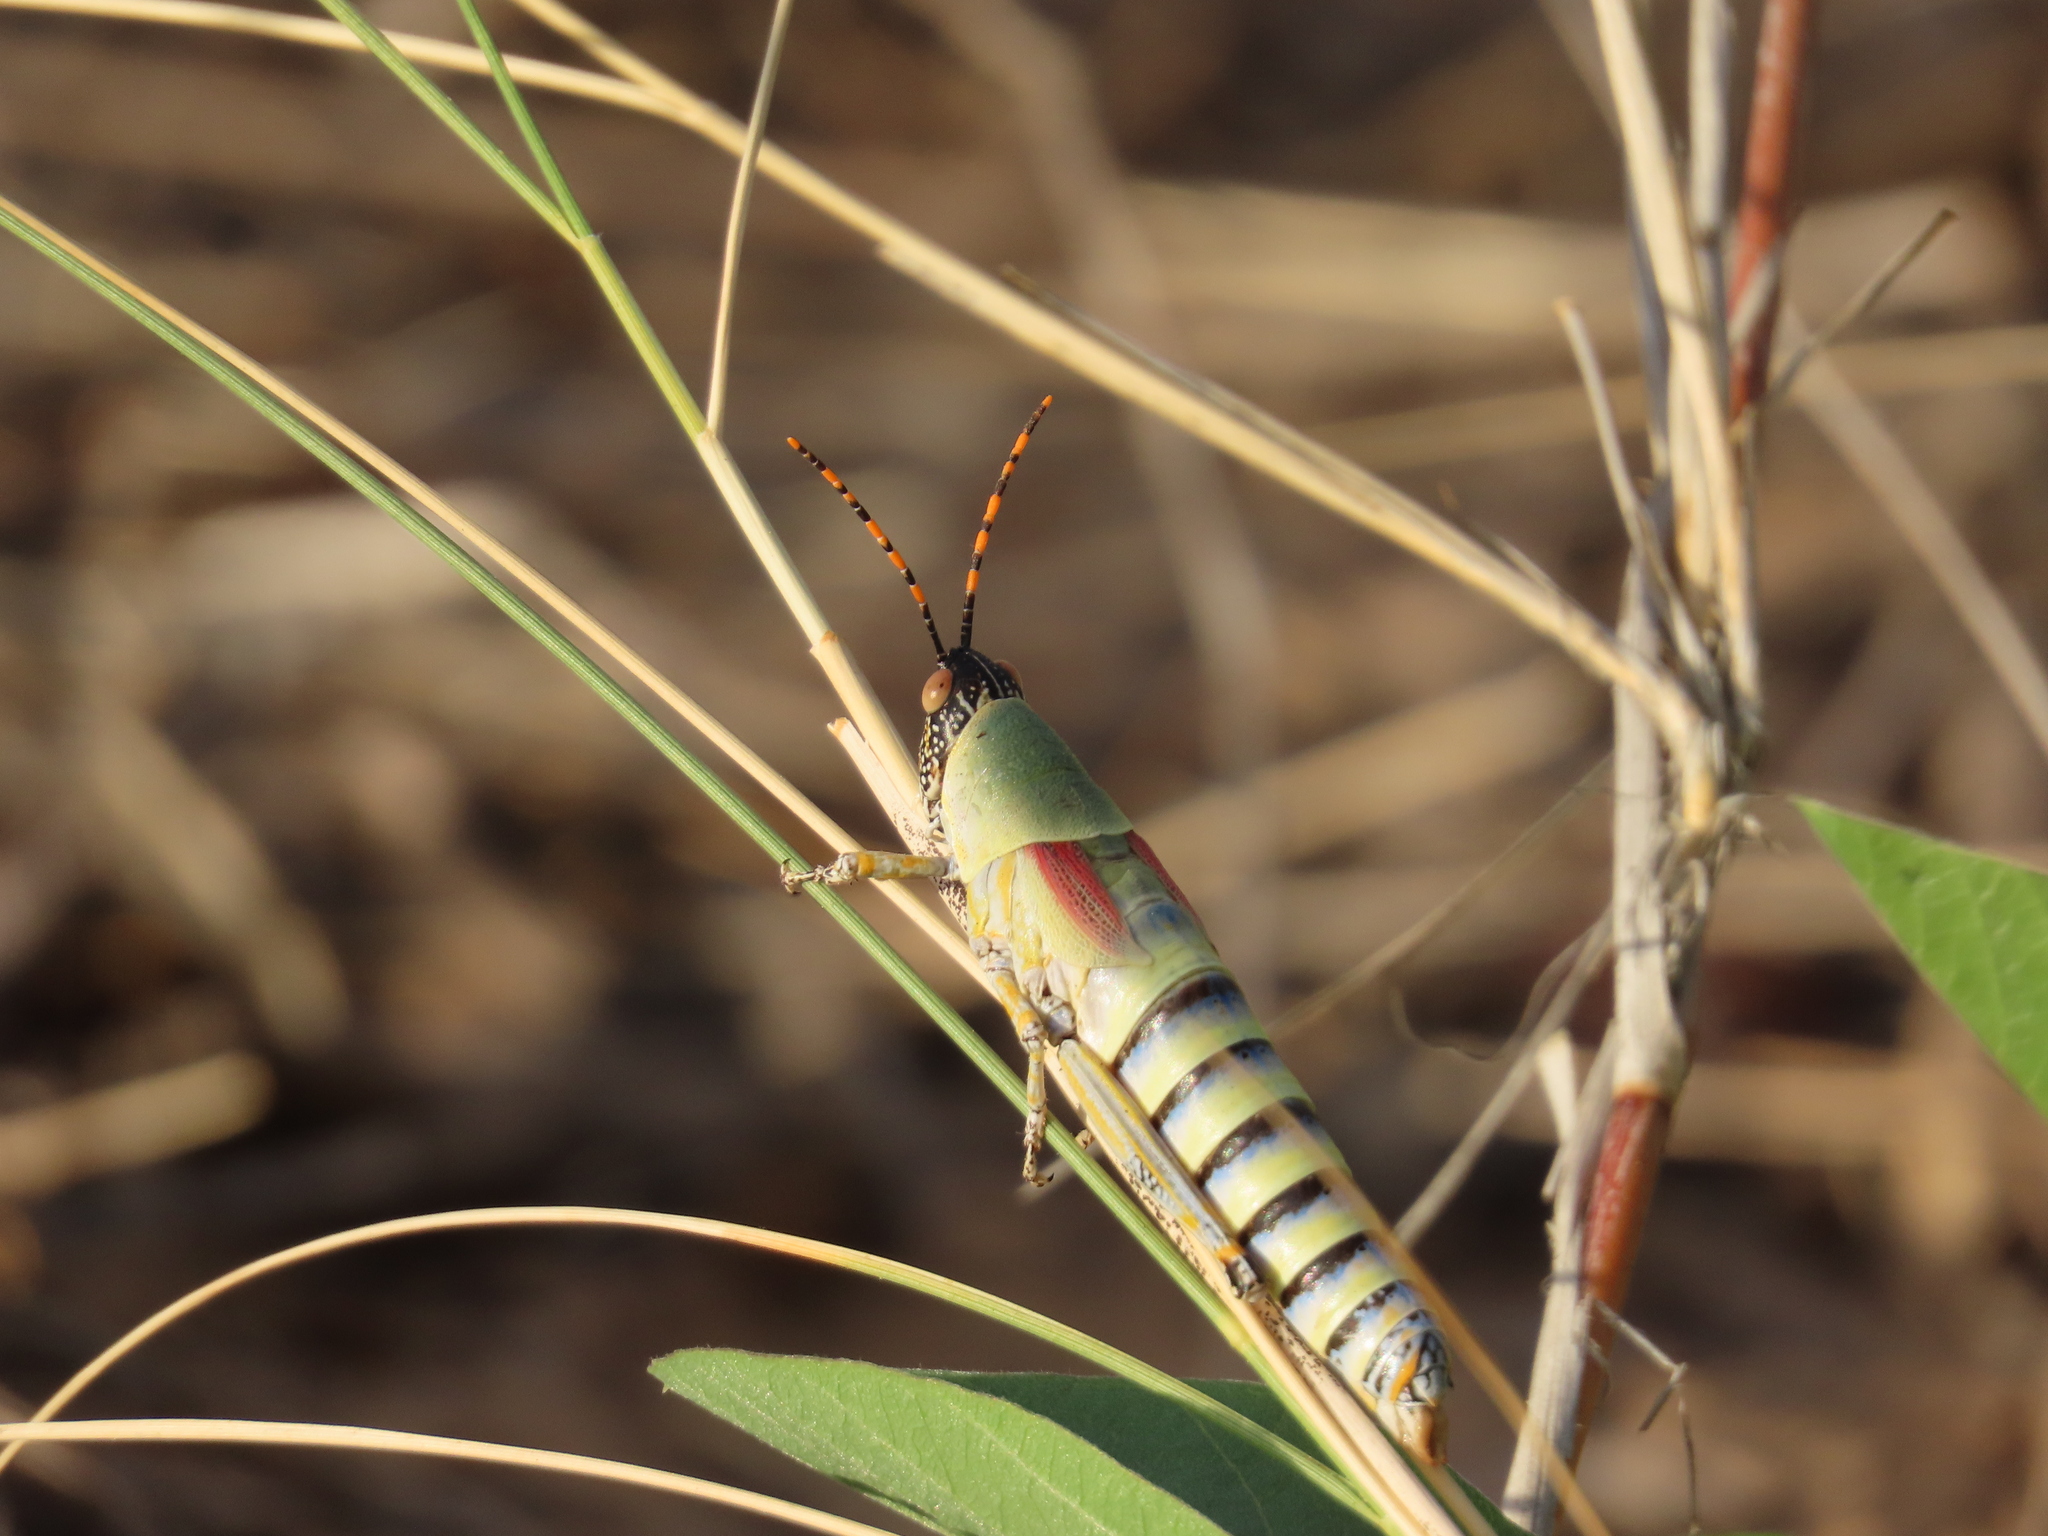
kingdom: Animalia
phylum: Arthropoda
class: Insecta
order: Orthoptera
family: Pyrgomorphidae
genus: Zonocerus
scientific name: Zonocerus elegans
